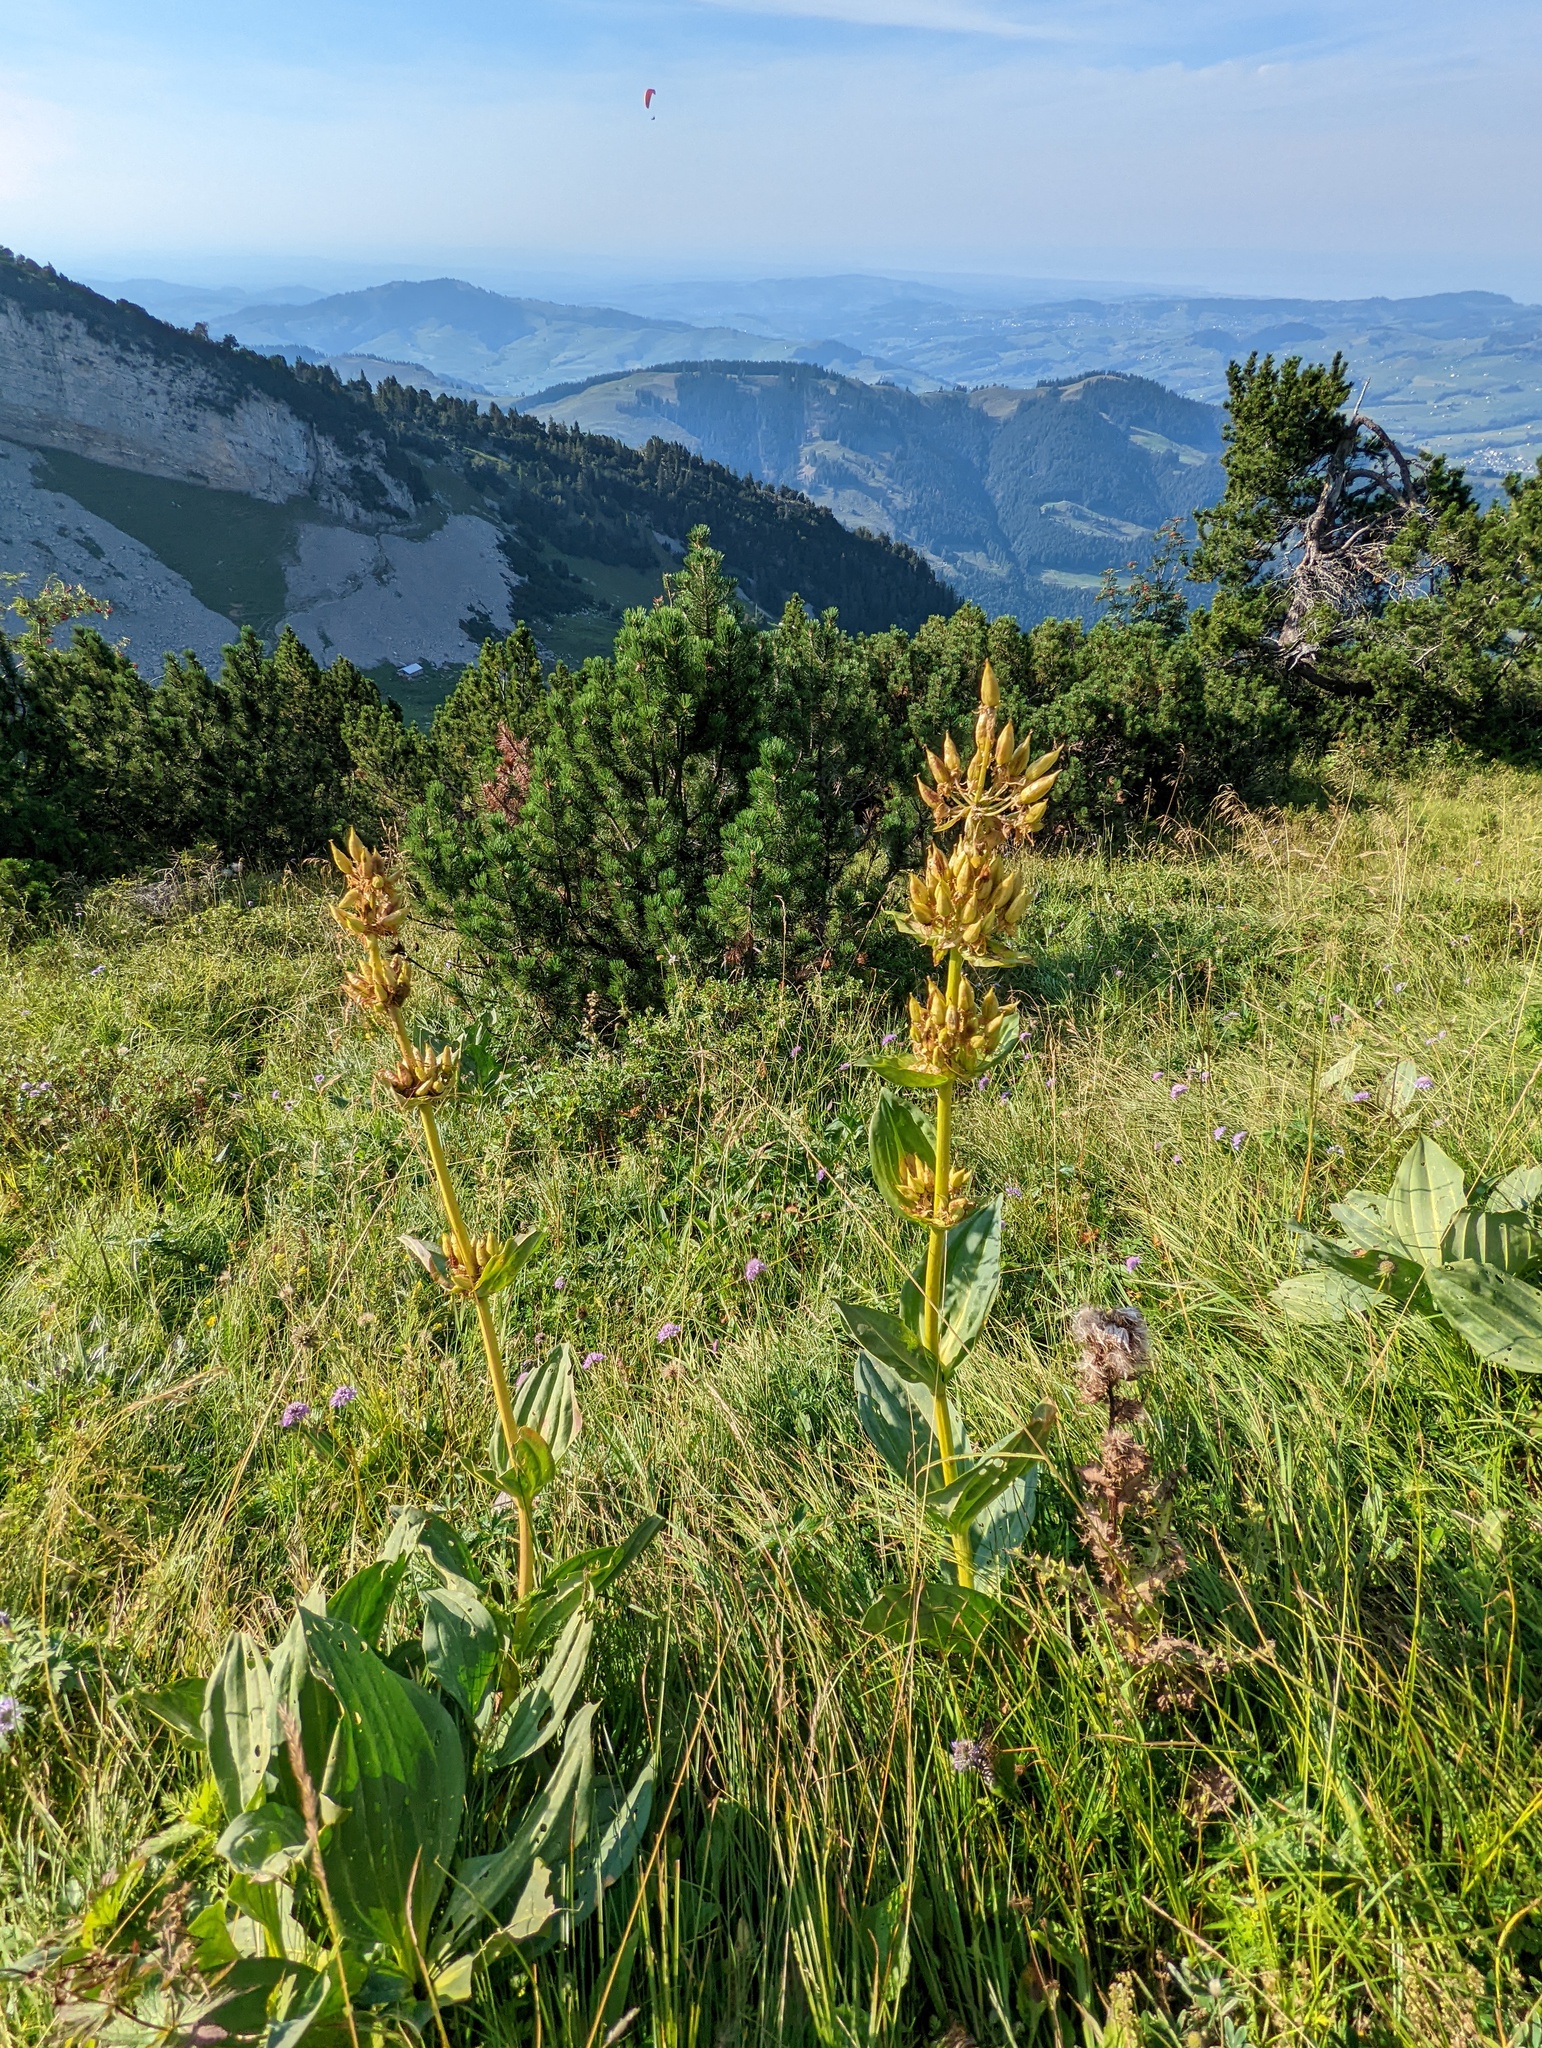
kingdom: Plantae
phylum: Tracheophyta
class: Magnoliopsida
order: Gentianales
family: Gentianaceae
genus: Gentiana
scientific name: Gentiana lutea
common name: Great yellow gentian
